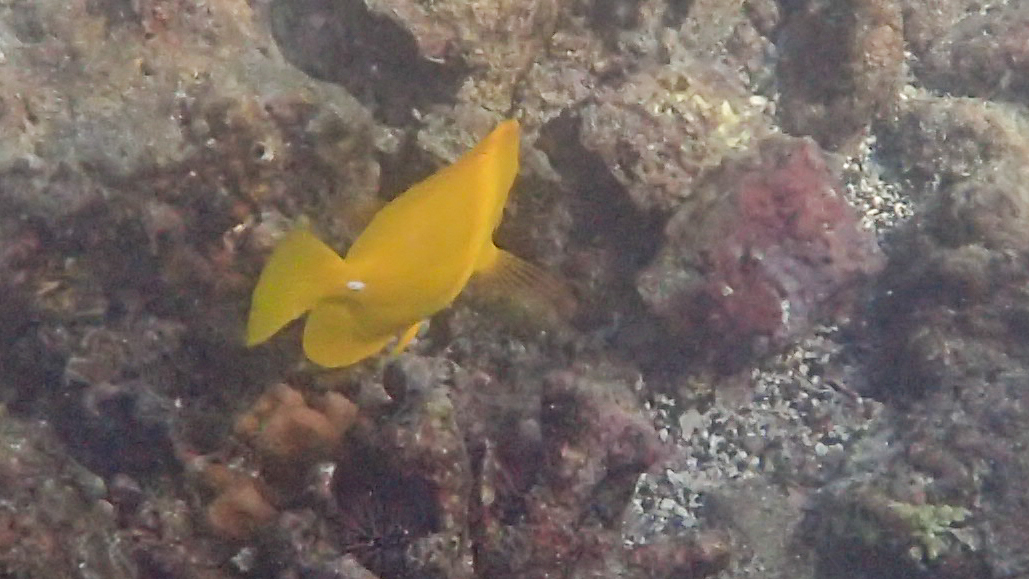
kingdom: Animalia
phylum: Chordata
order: Perciformes
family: Acanthuridae
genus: Zebrasoma
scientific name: Zebrasoma flavescens
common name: Yellow tang
